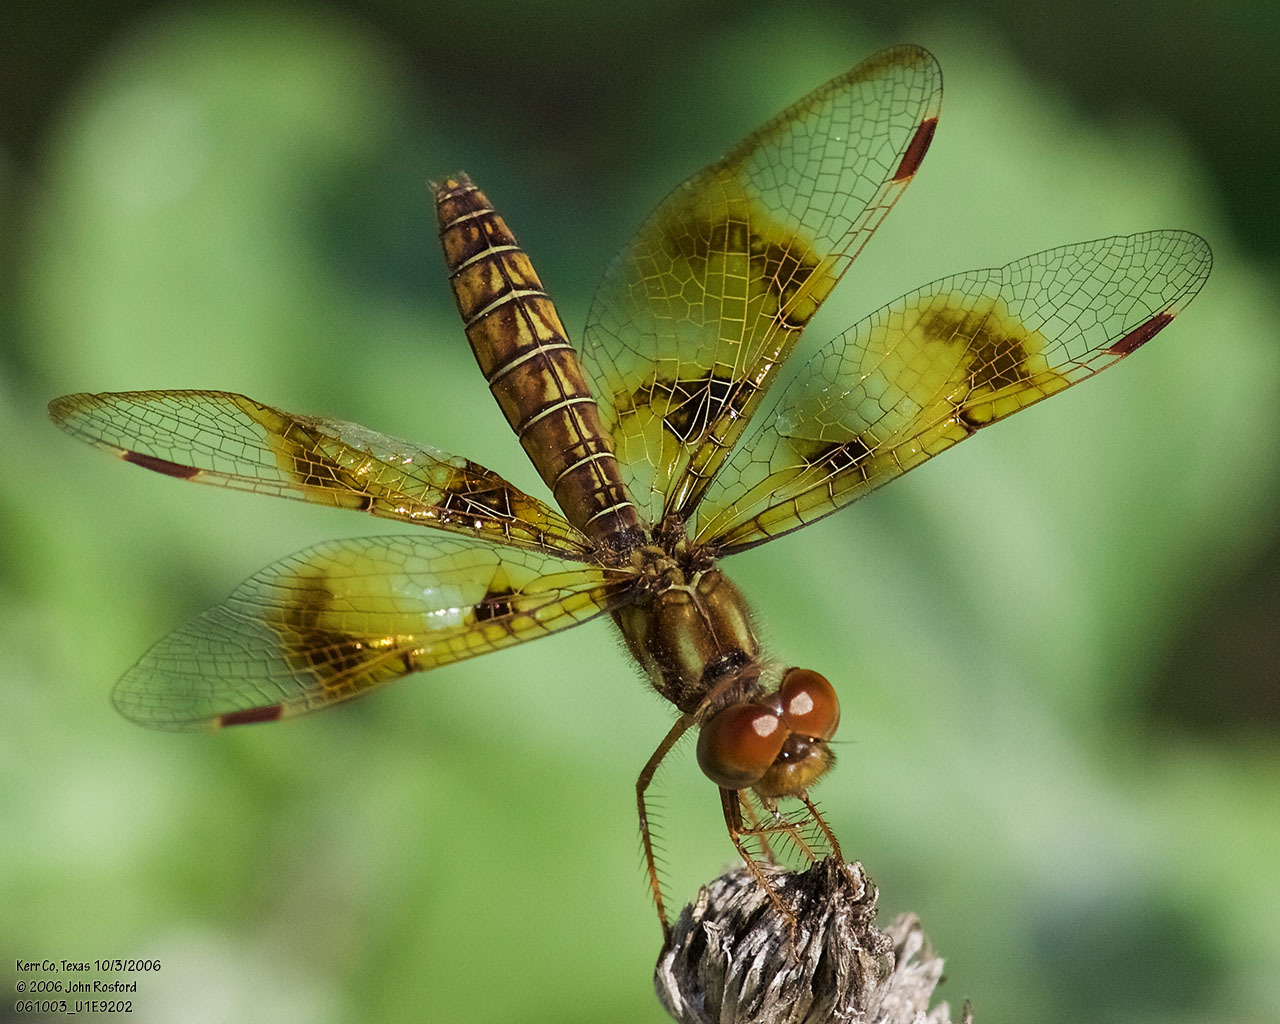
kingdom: Animalia
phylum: Arthropoda
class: Insecta
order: Odonata
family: Libellulidae
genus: Perithemis
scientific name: Perithemis tenera
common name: Eastern amberwing
